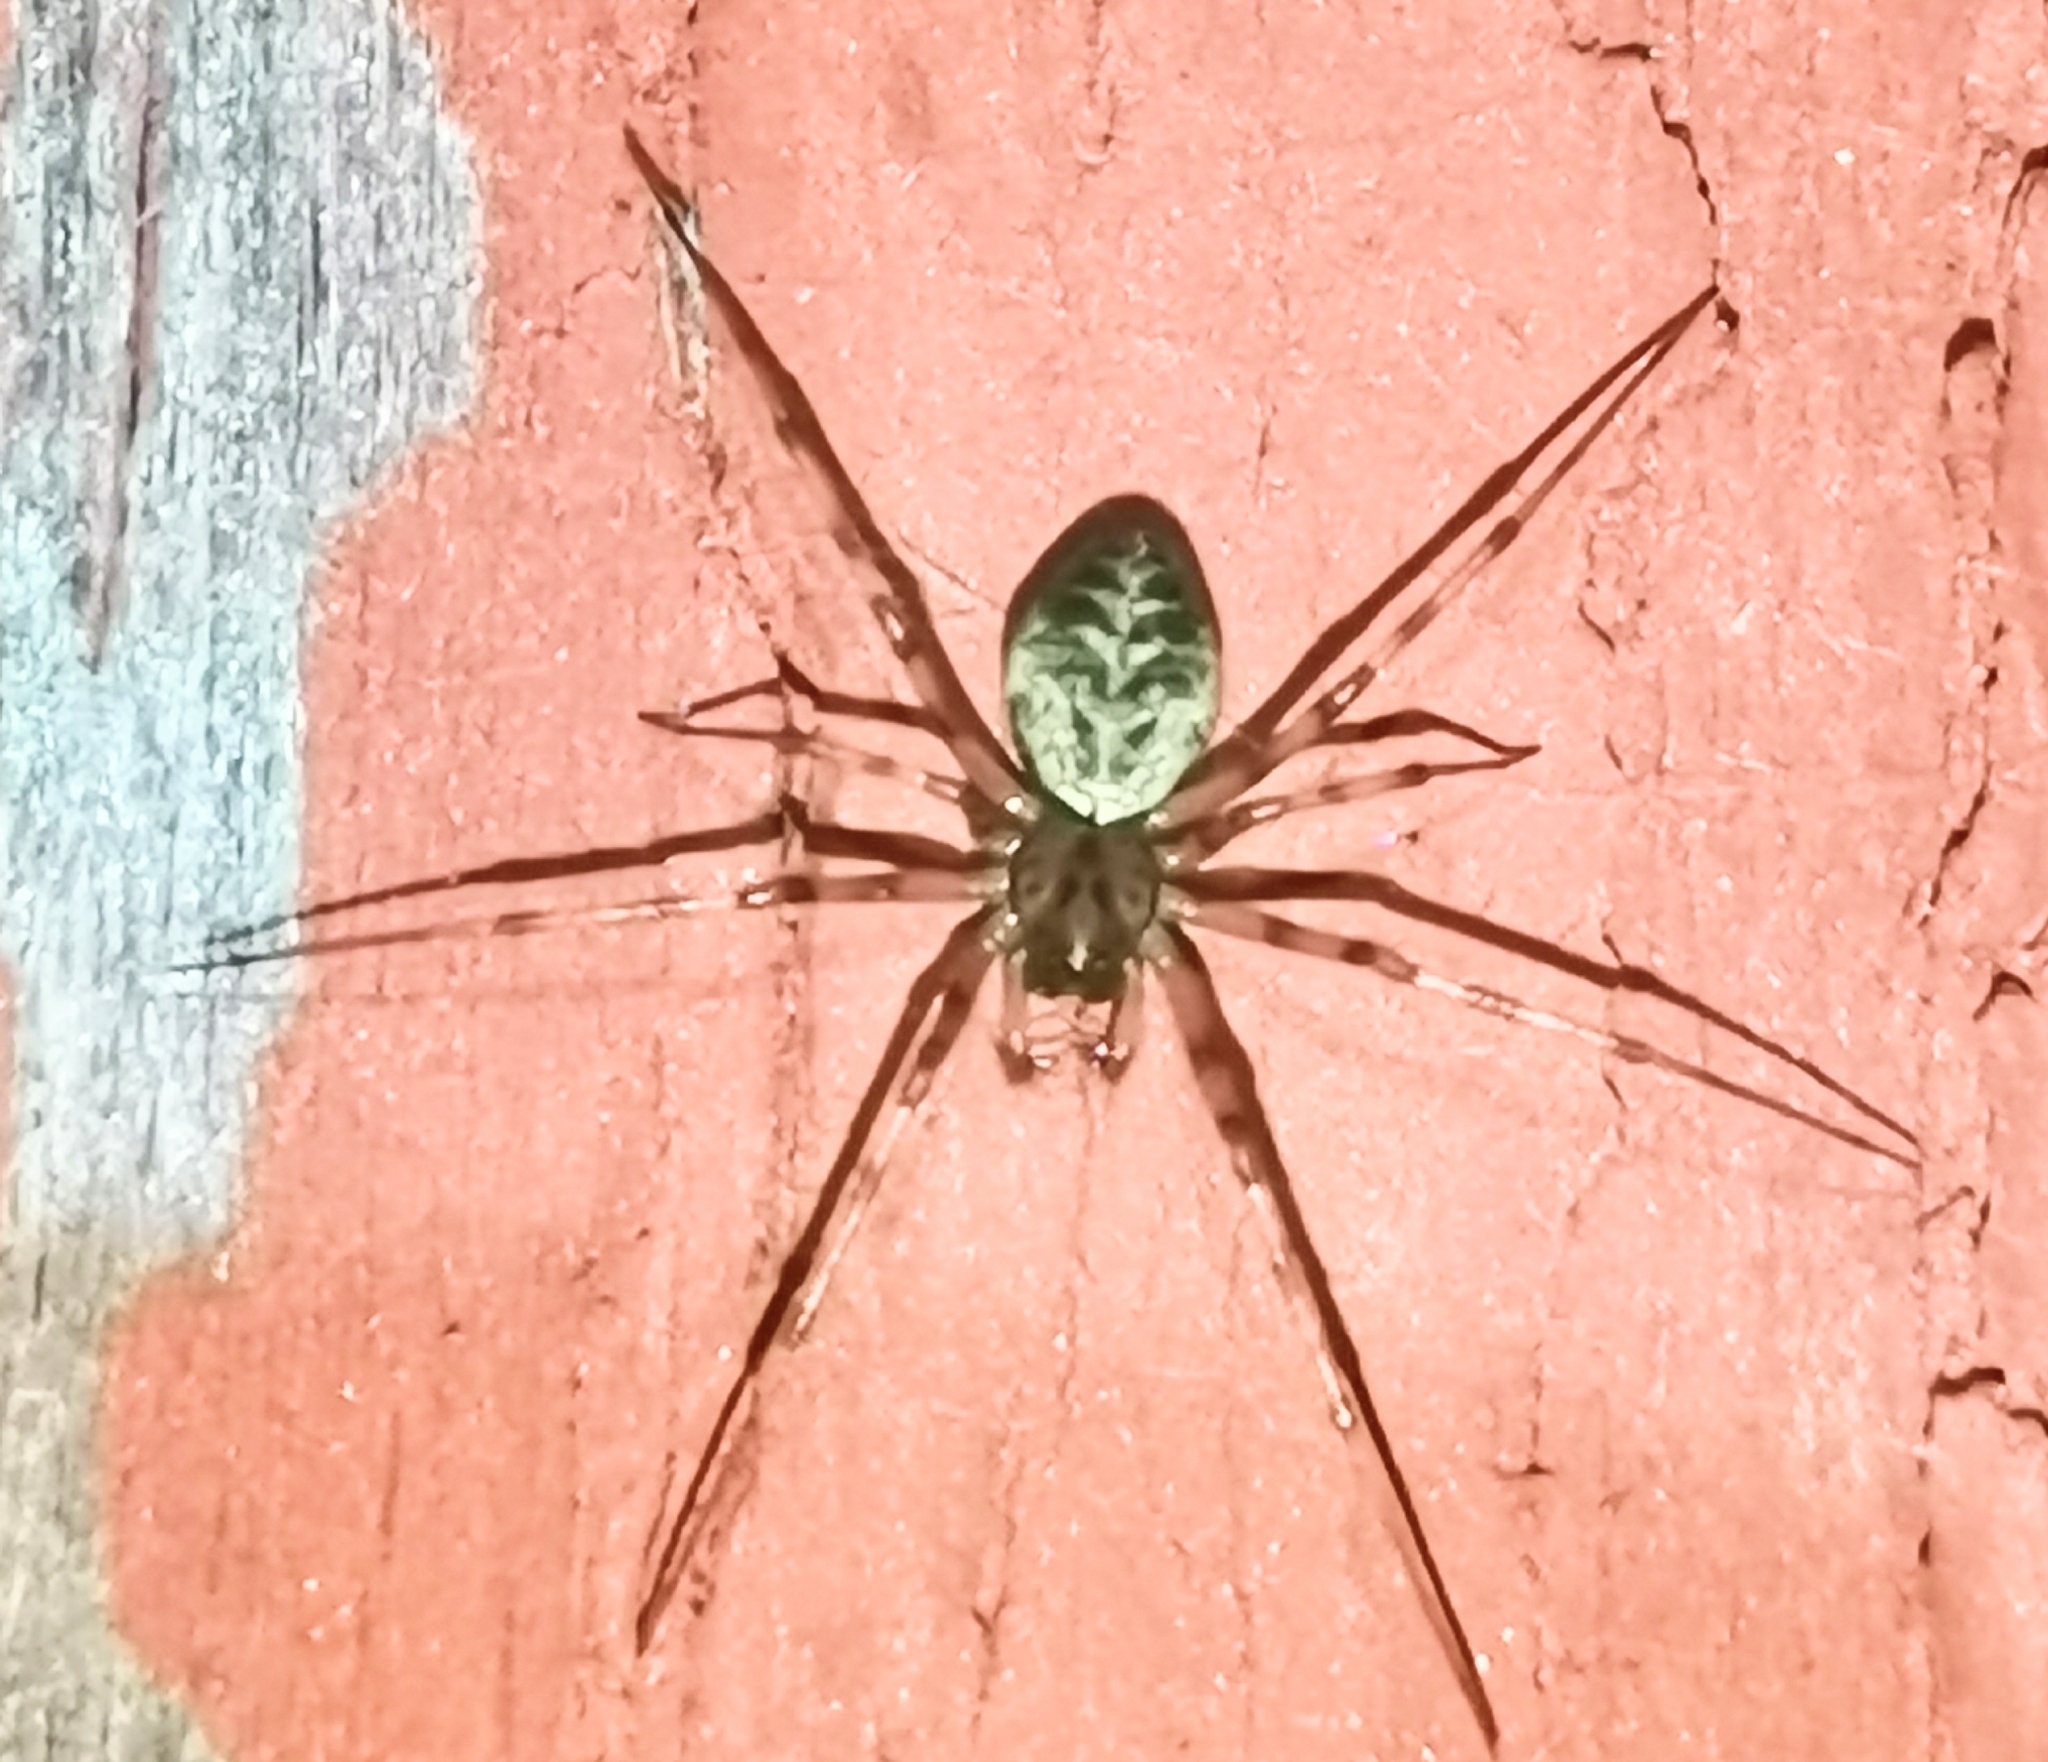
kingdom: Animalia
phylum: Arthropoda
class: Arachnida
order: Araneae
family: Linyphiidae
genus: Drapetisca
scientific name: Drapetisca socialis
